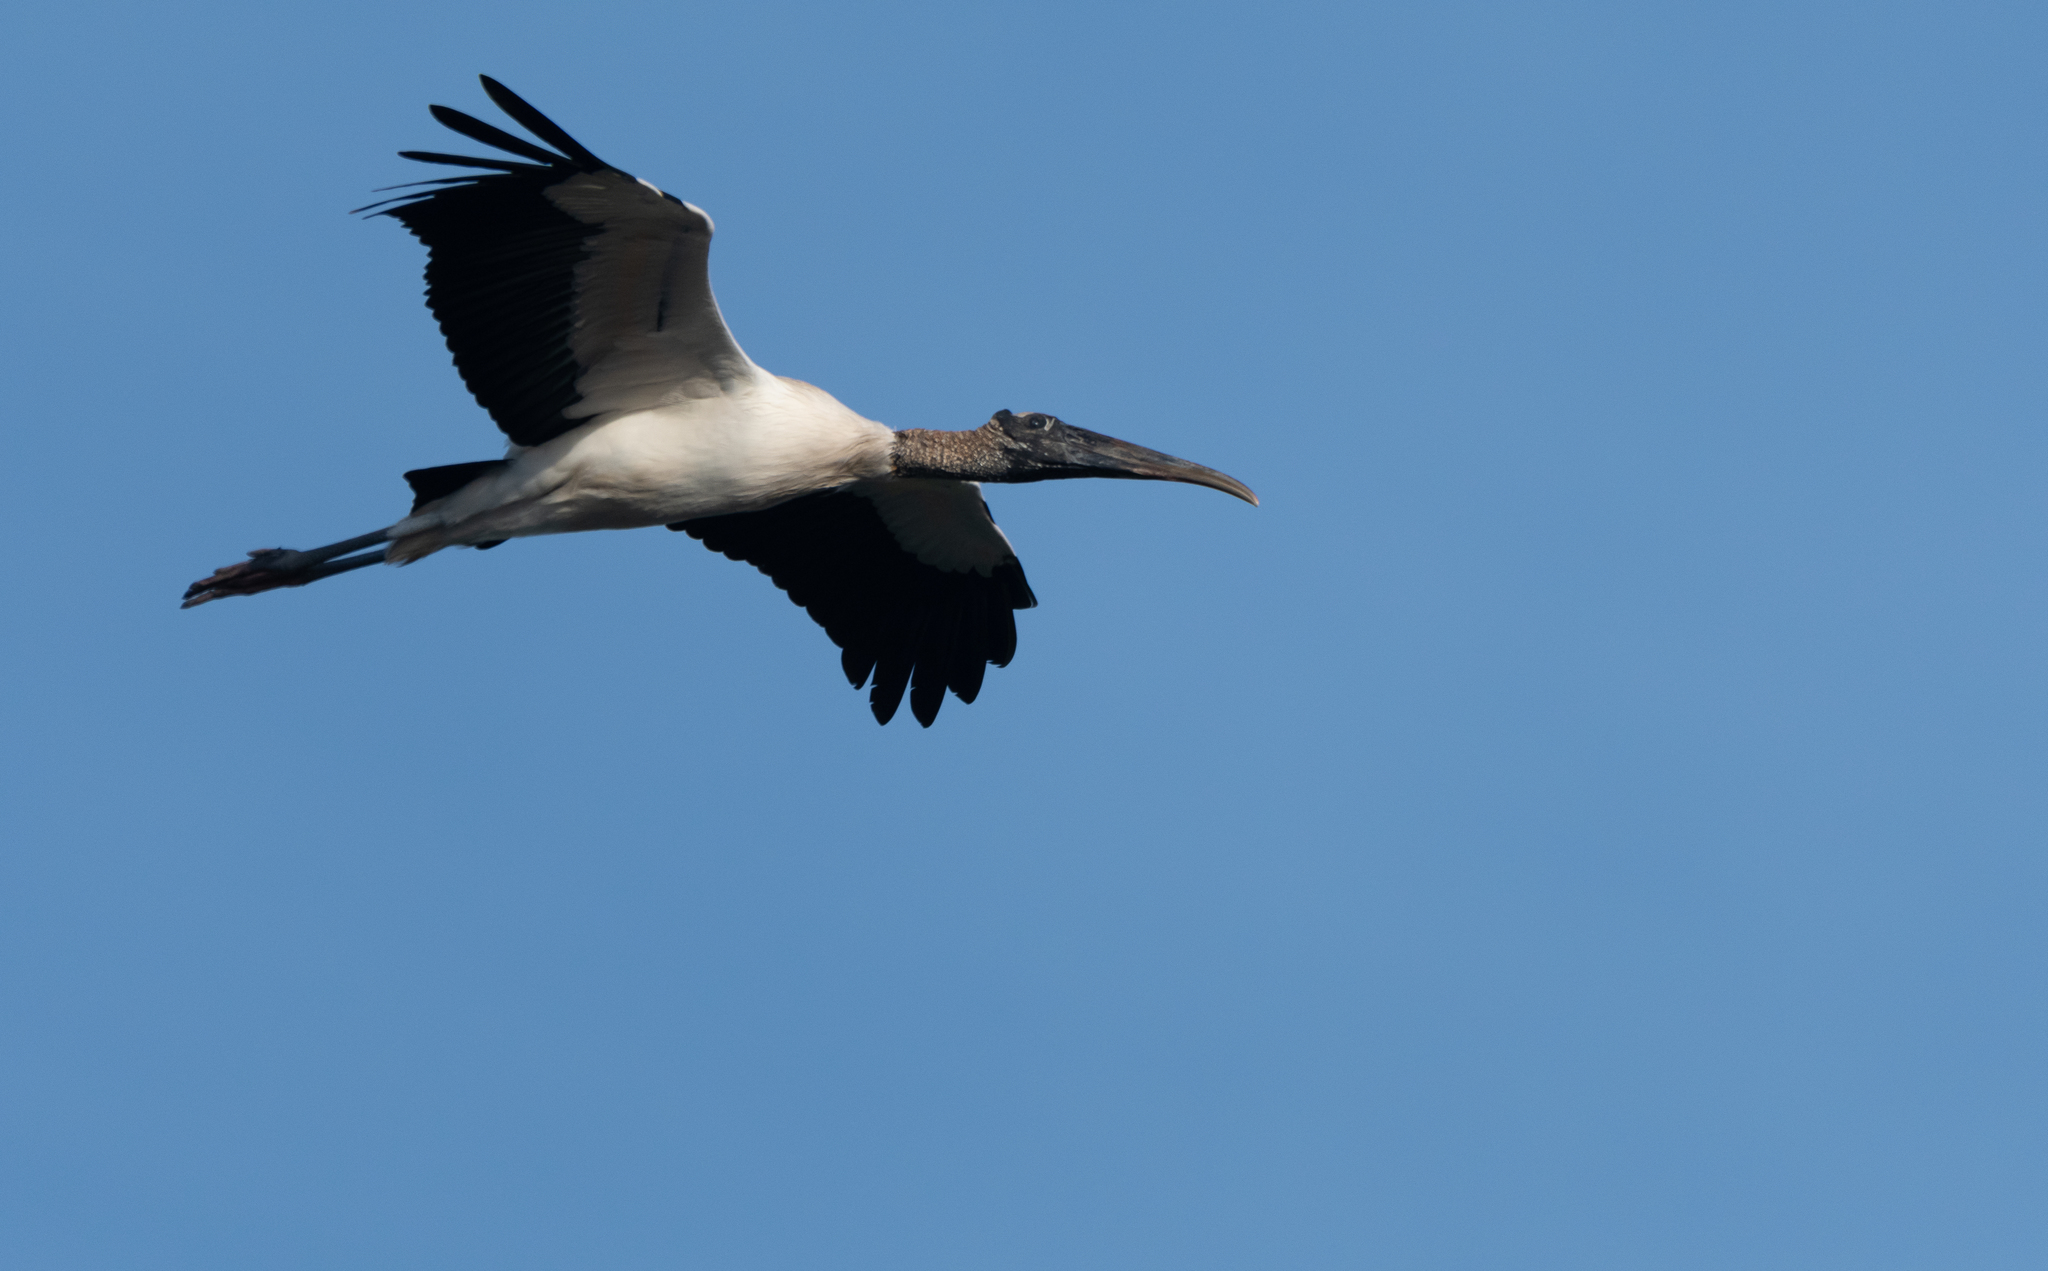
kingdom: Animalia
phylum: Chordata
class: Aves
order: Ciconiiformes
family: Ciconiidae
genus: Mycteria
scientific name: Mycteria americana
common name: Wood stork
